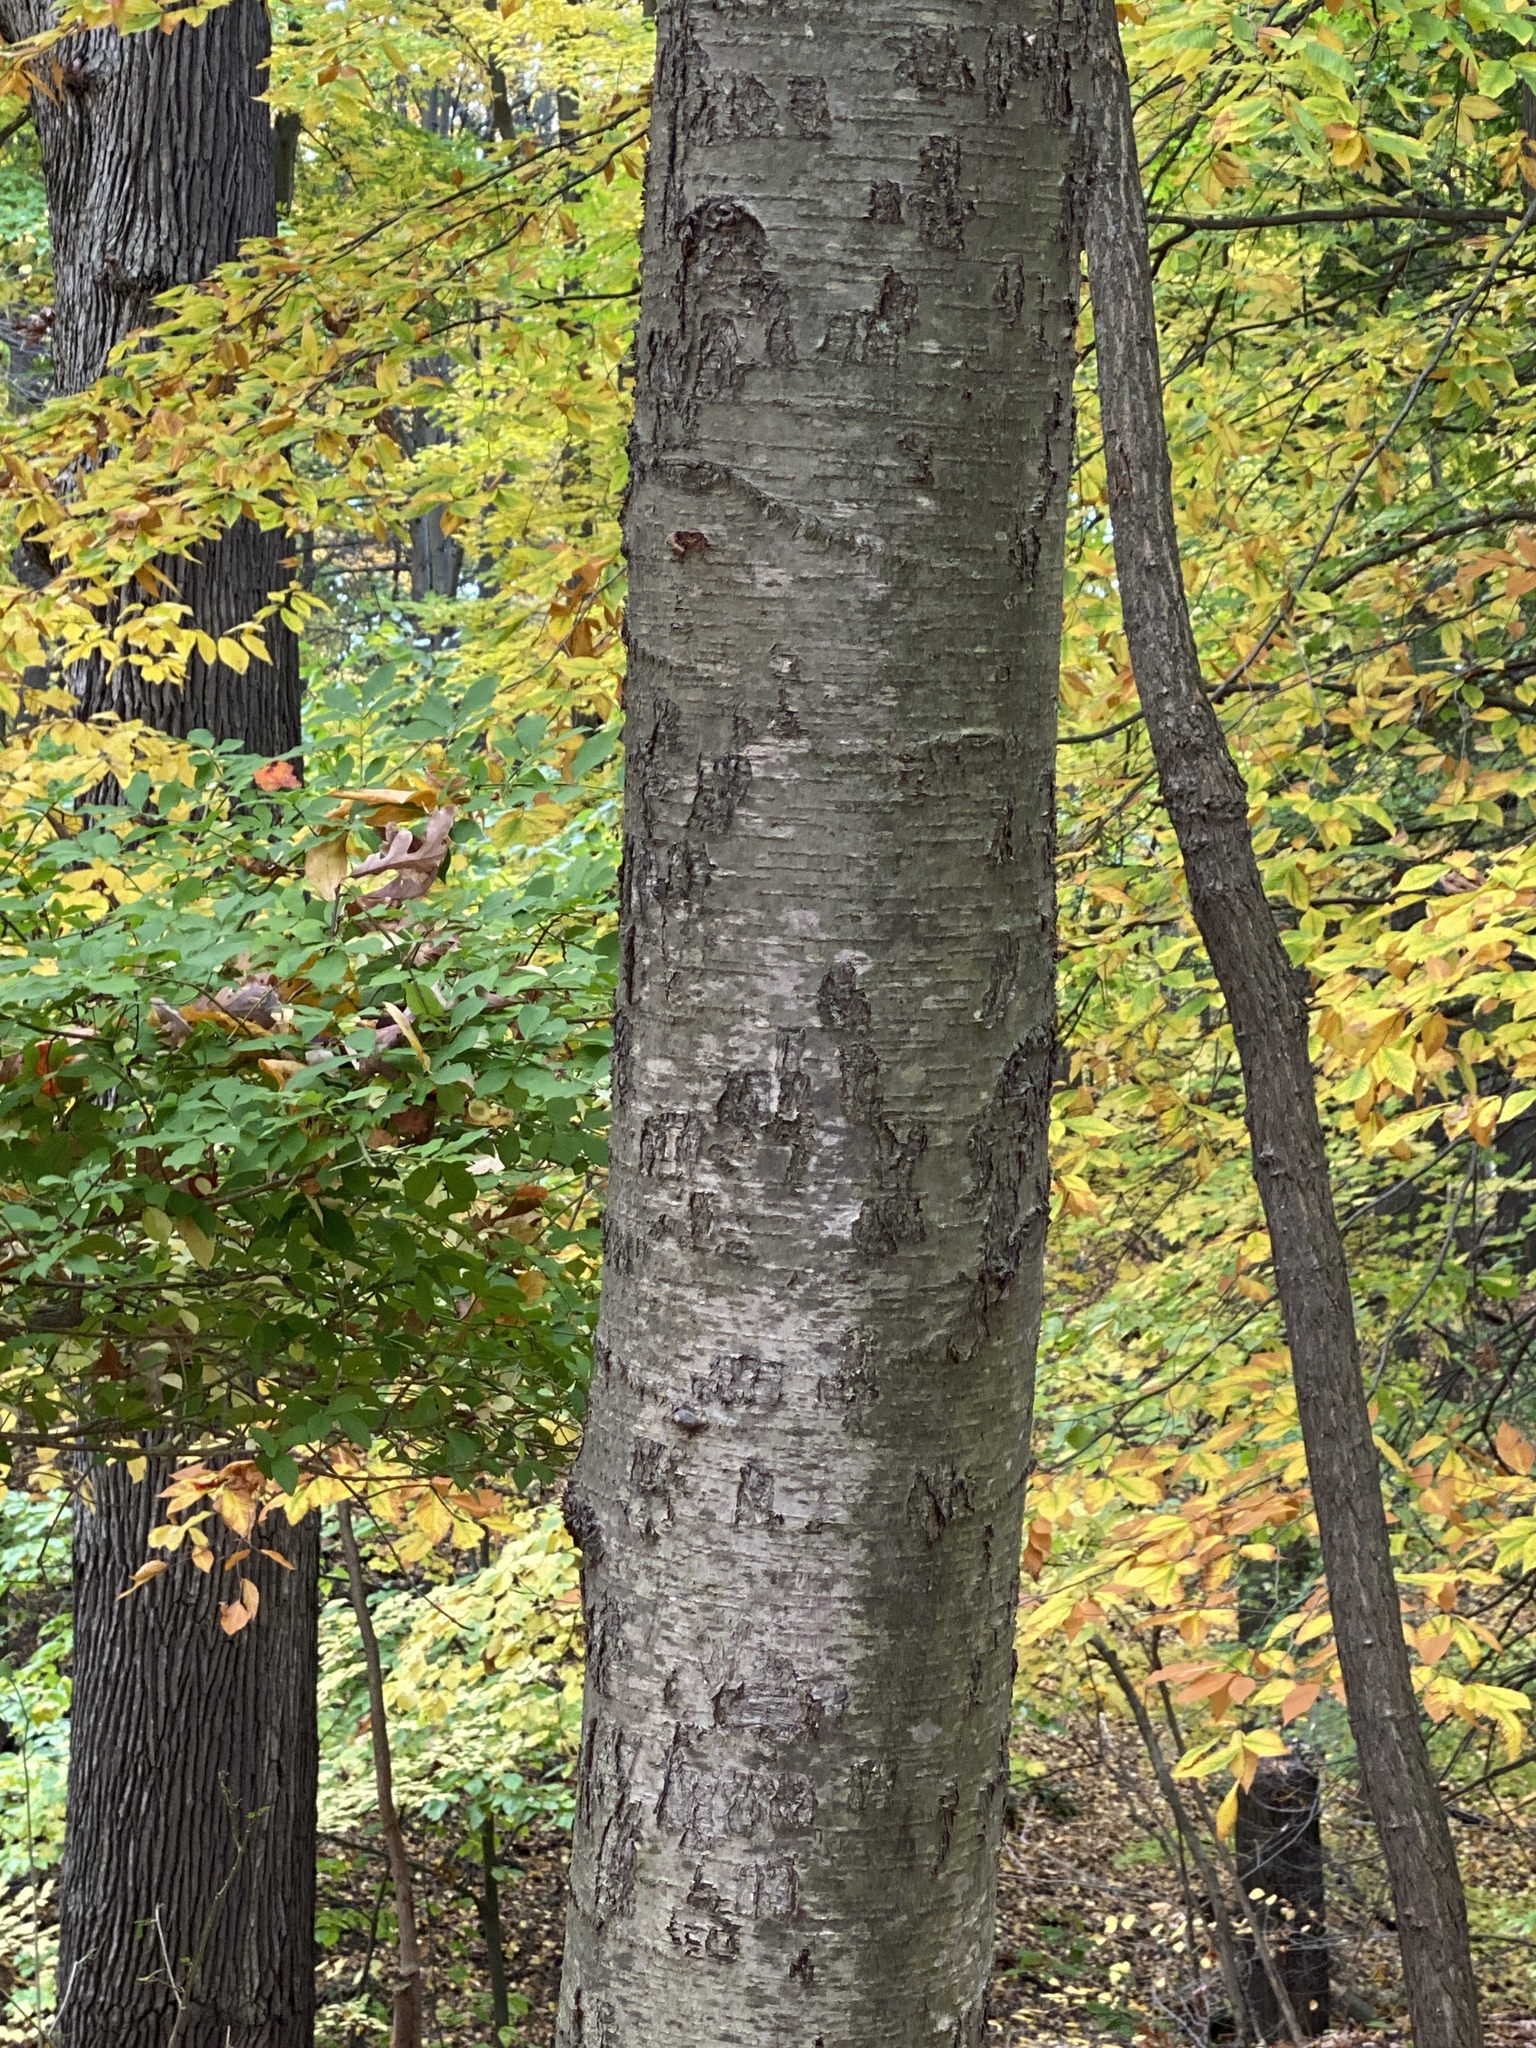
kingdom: Plantae
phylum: Tracheophyta
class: Magnoliopsida
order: Fagales
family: Betulaceae
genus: Betula
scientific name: Betula lenta
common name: Black birch
